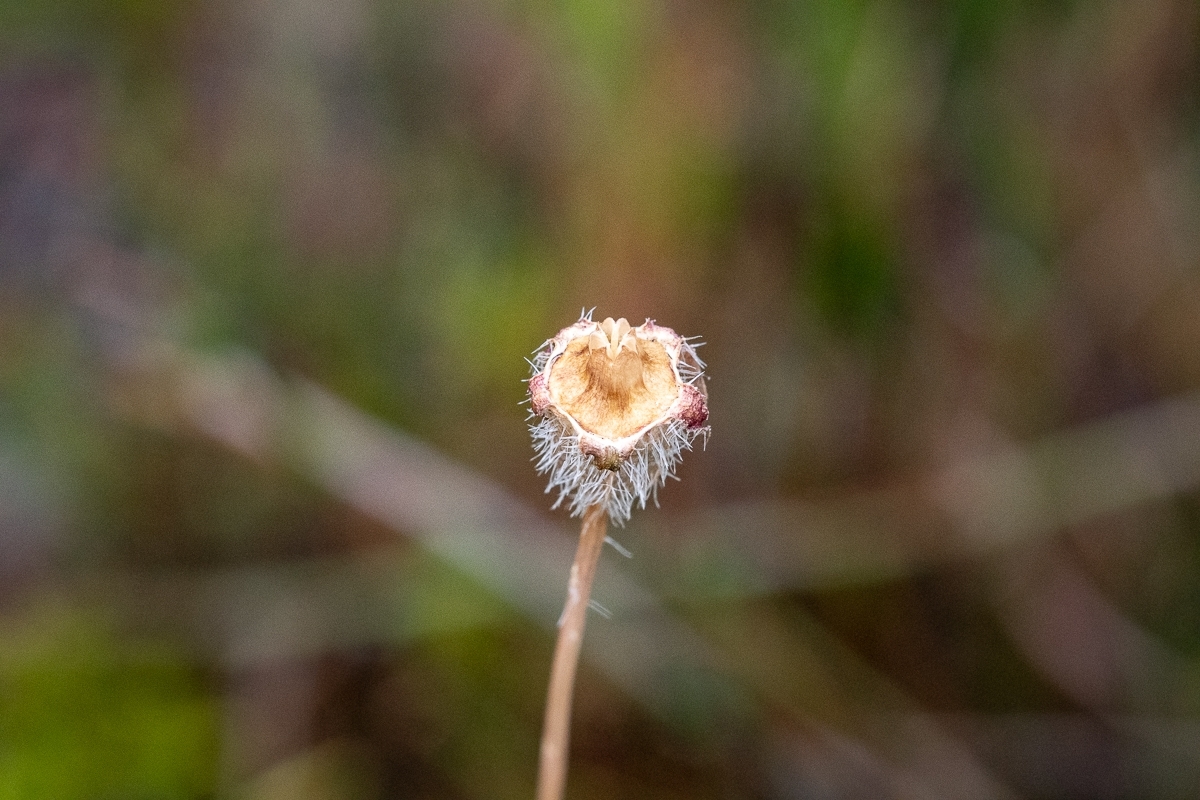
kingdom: Plantae
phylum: Tracheophyta
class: Magnoliopsida
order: Asterales
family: Campanulaceae
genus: Wahlenbergia
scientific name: Wahlenbergia capensis
